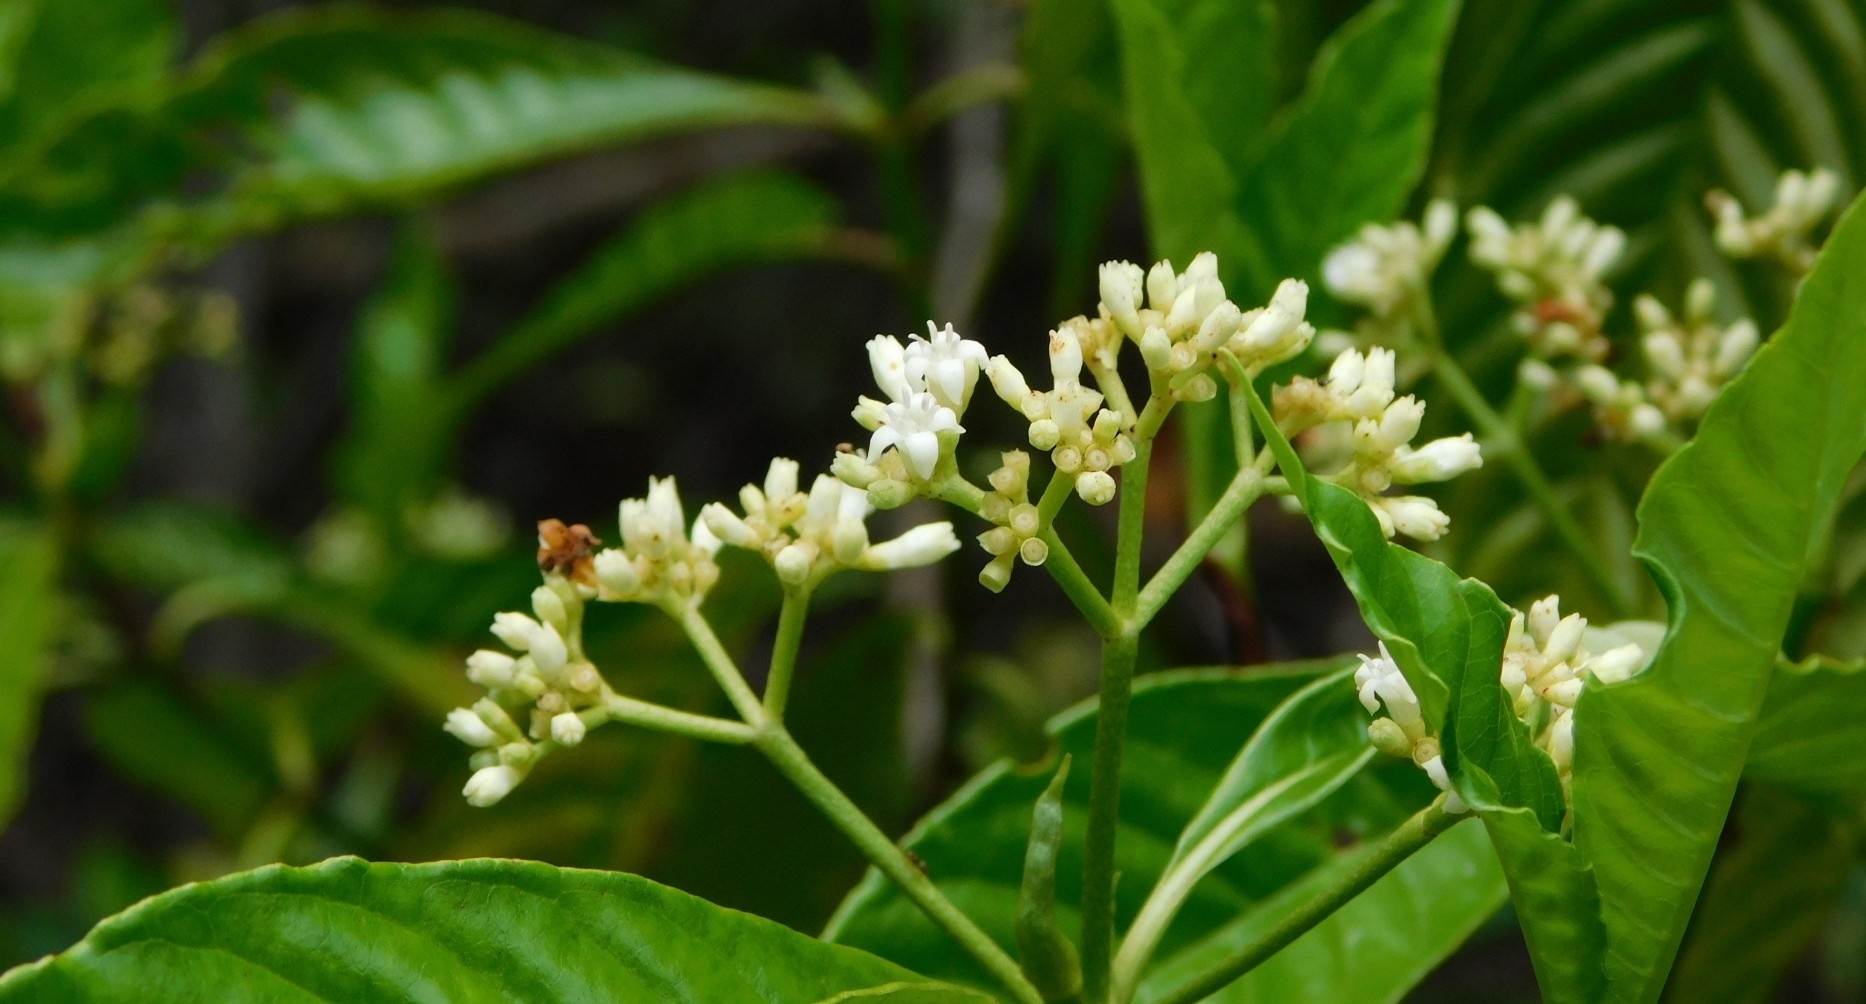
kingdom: Plantae
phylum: Tracheophyta
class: Magnoliopsida
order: Gentianales
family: Rubiaceae
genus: Psychotria
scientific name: Psychotria nervosa
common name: Bastard cankerberry
